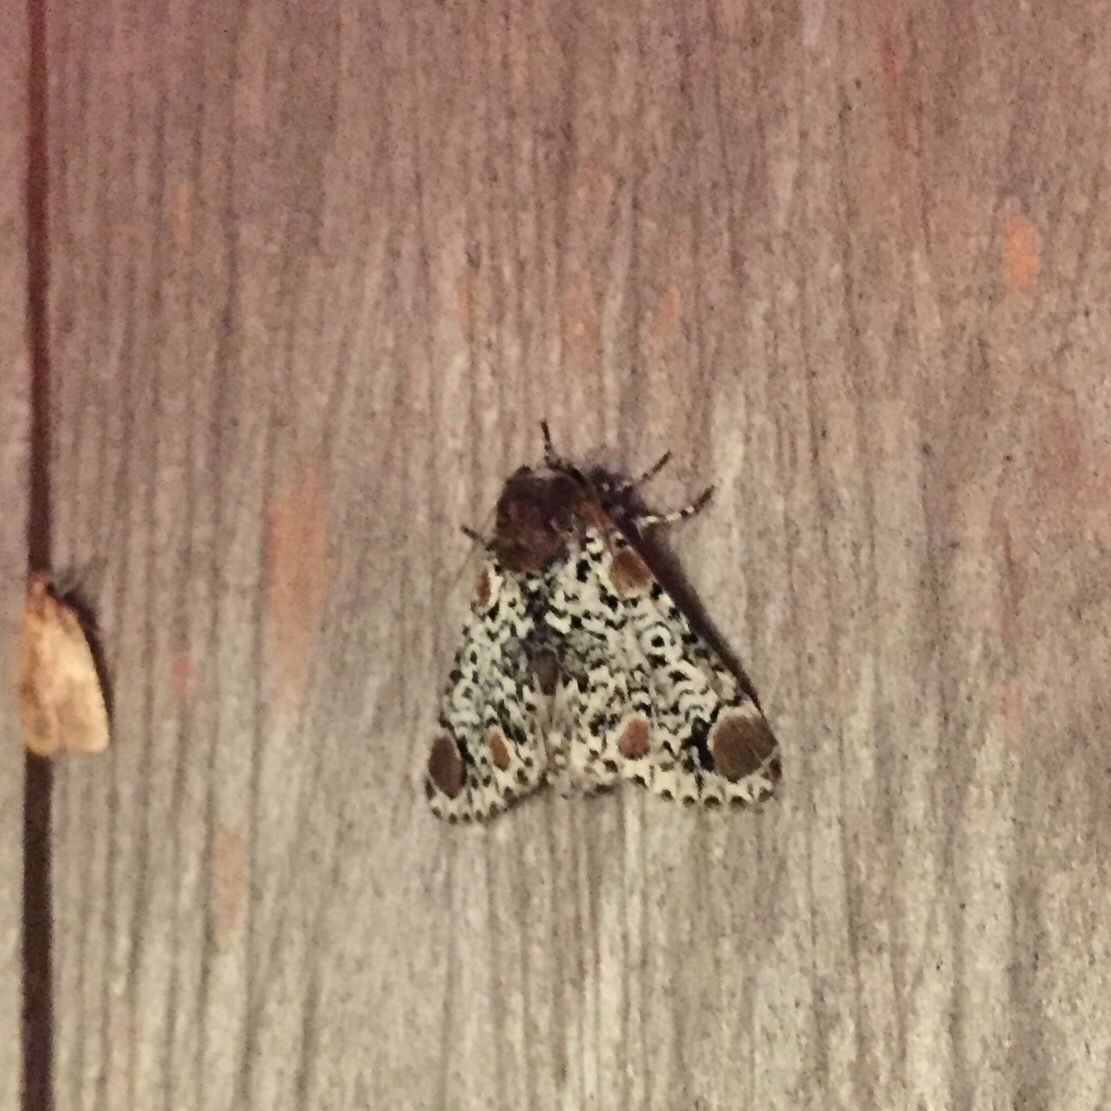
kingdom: Animalia
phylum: Arthropoda
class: Insecta
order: Lepidoptera
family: Noctuidae
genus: Harrisimemna
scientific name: Harrisimemna trisignata
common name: Harris threespot
